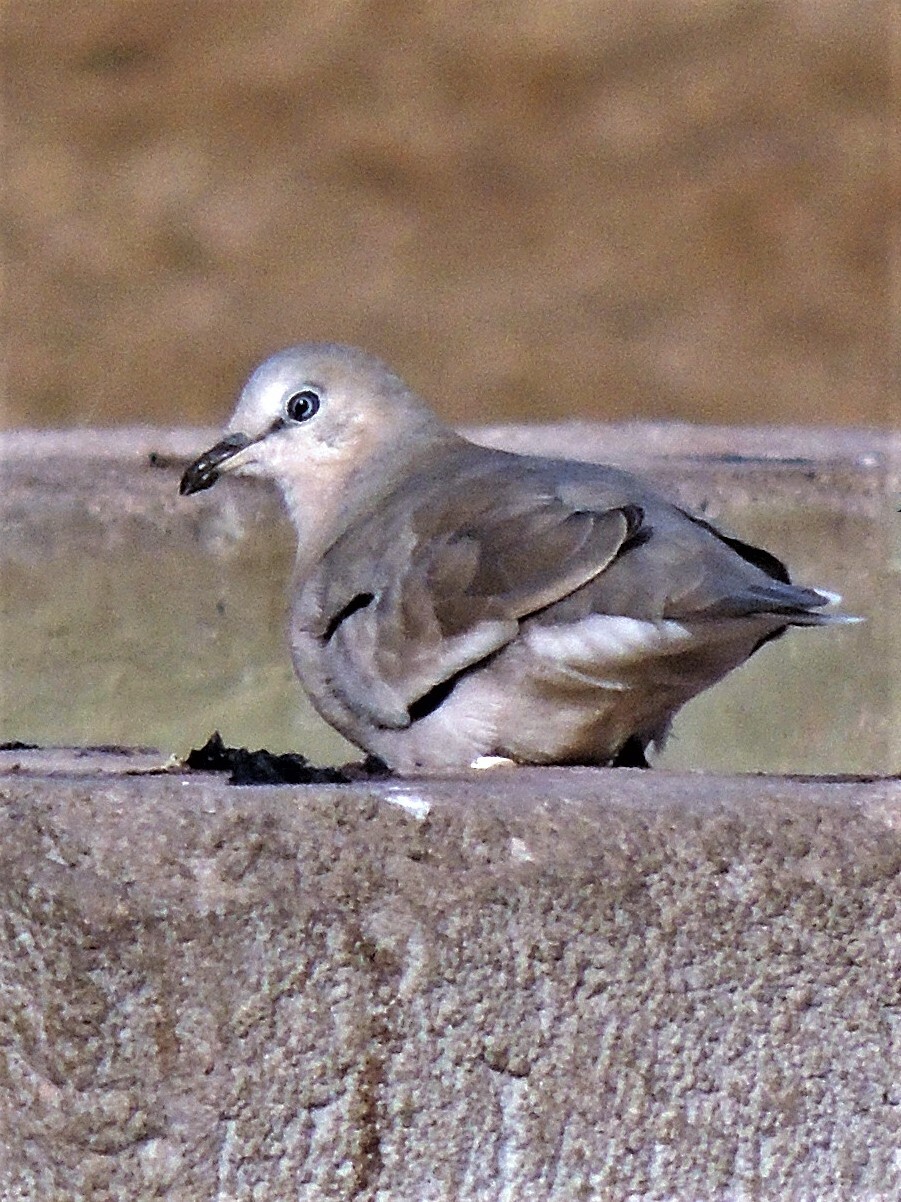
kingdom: Animalia
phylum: Chordata
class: Aves
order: Columbiformes
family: Columbidae
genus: Columbina
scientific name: Columbina picui
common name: Picui ground dove
